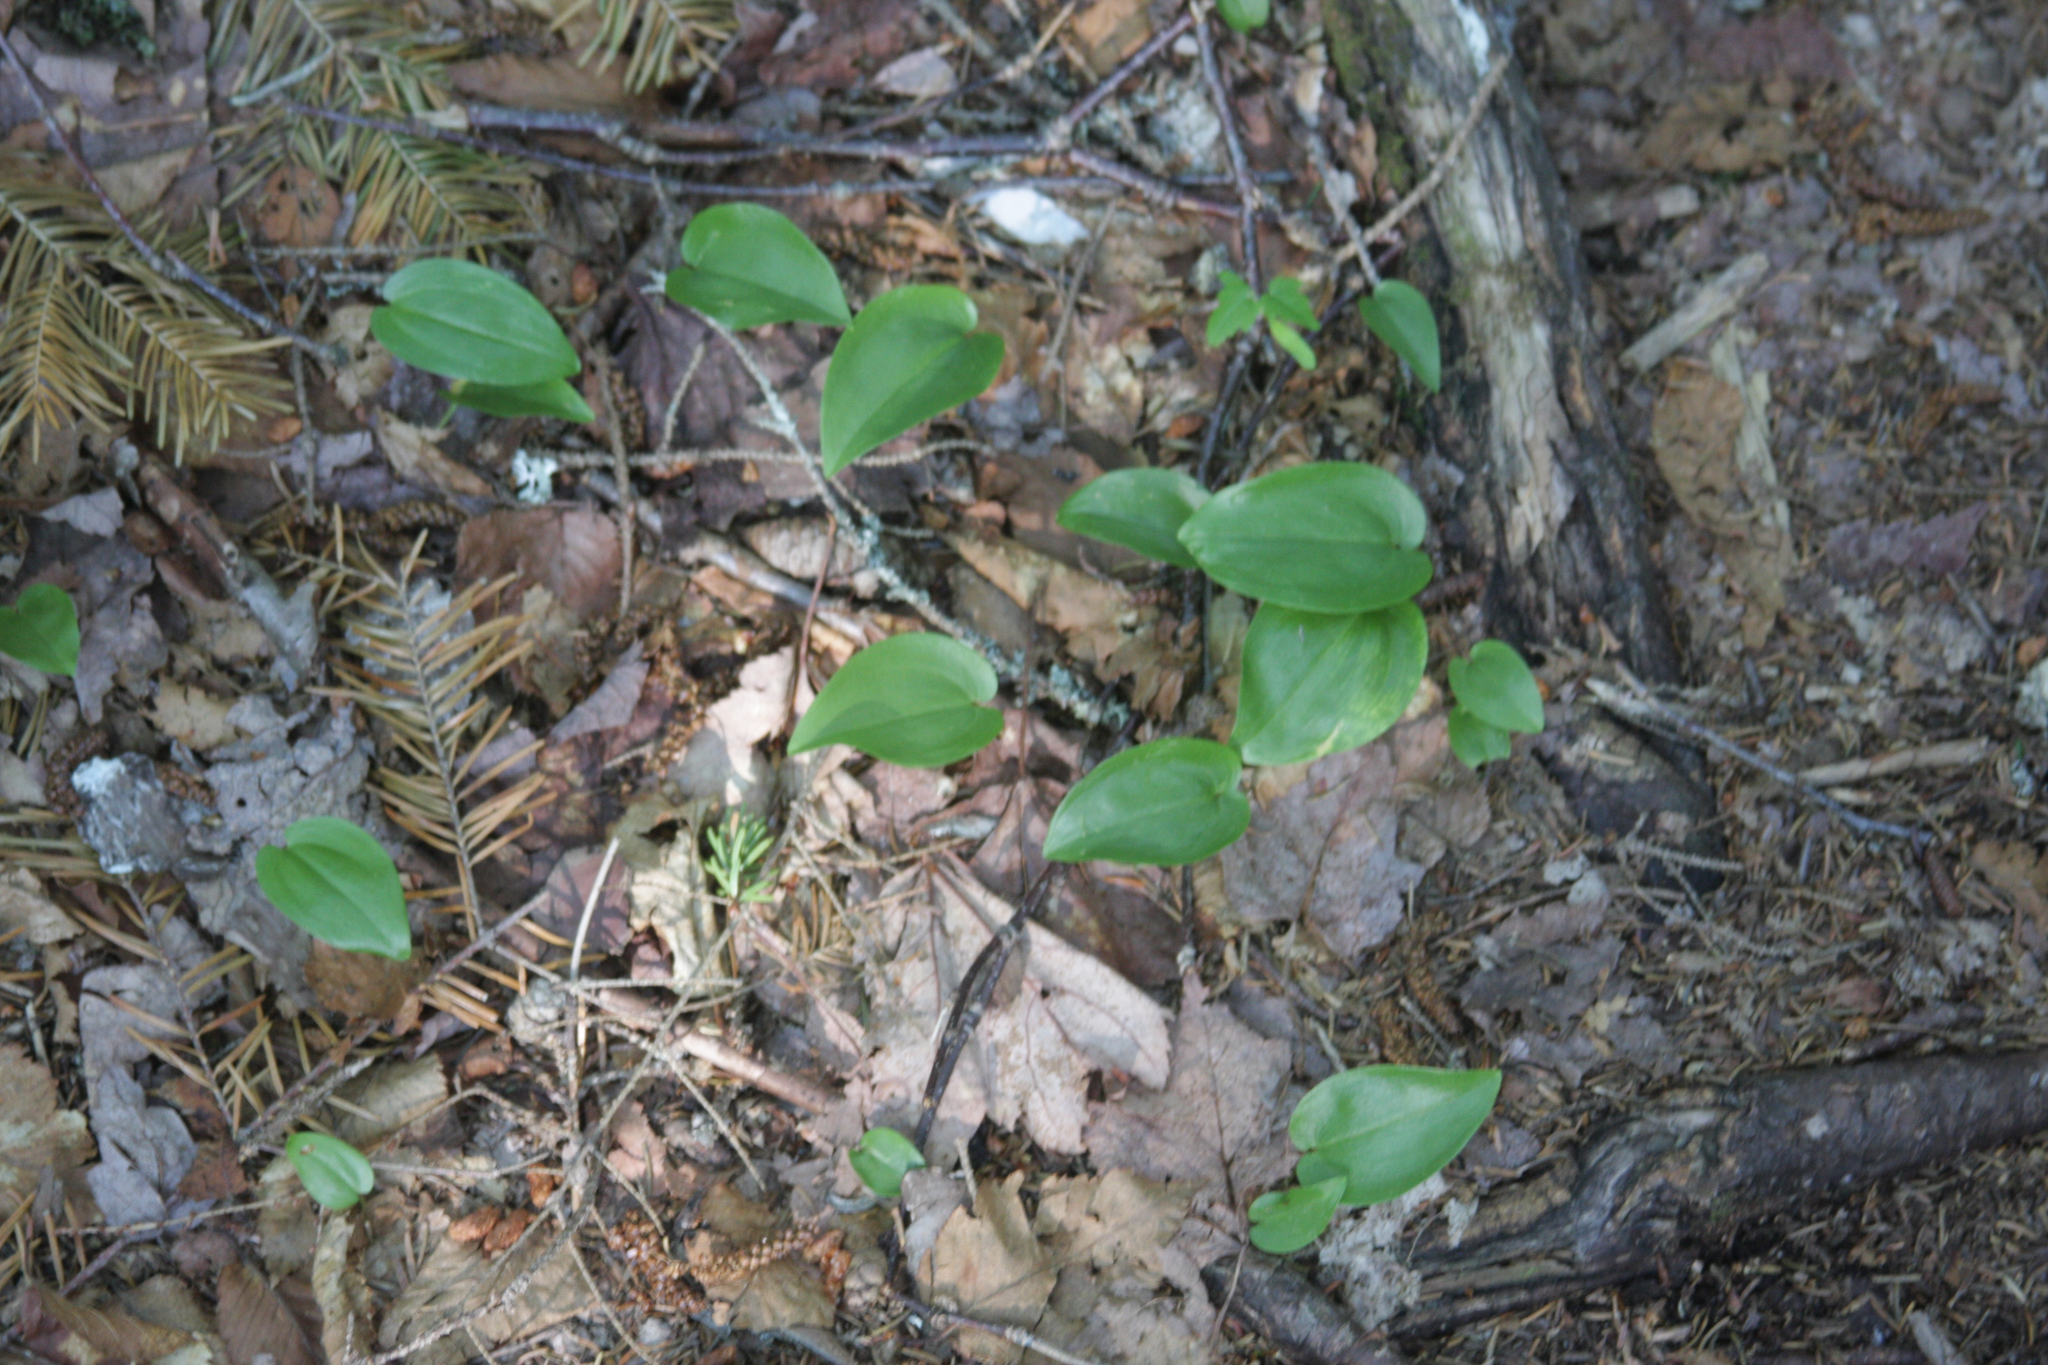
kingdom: Plantae
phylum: Tracheophyta
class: Liliopsida
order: Asparagales
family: Asparagaceae
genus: Maianthemum
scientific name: Maianthemum canadense
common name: False lily-of-the-valley
